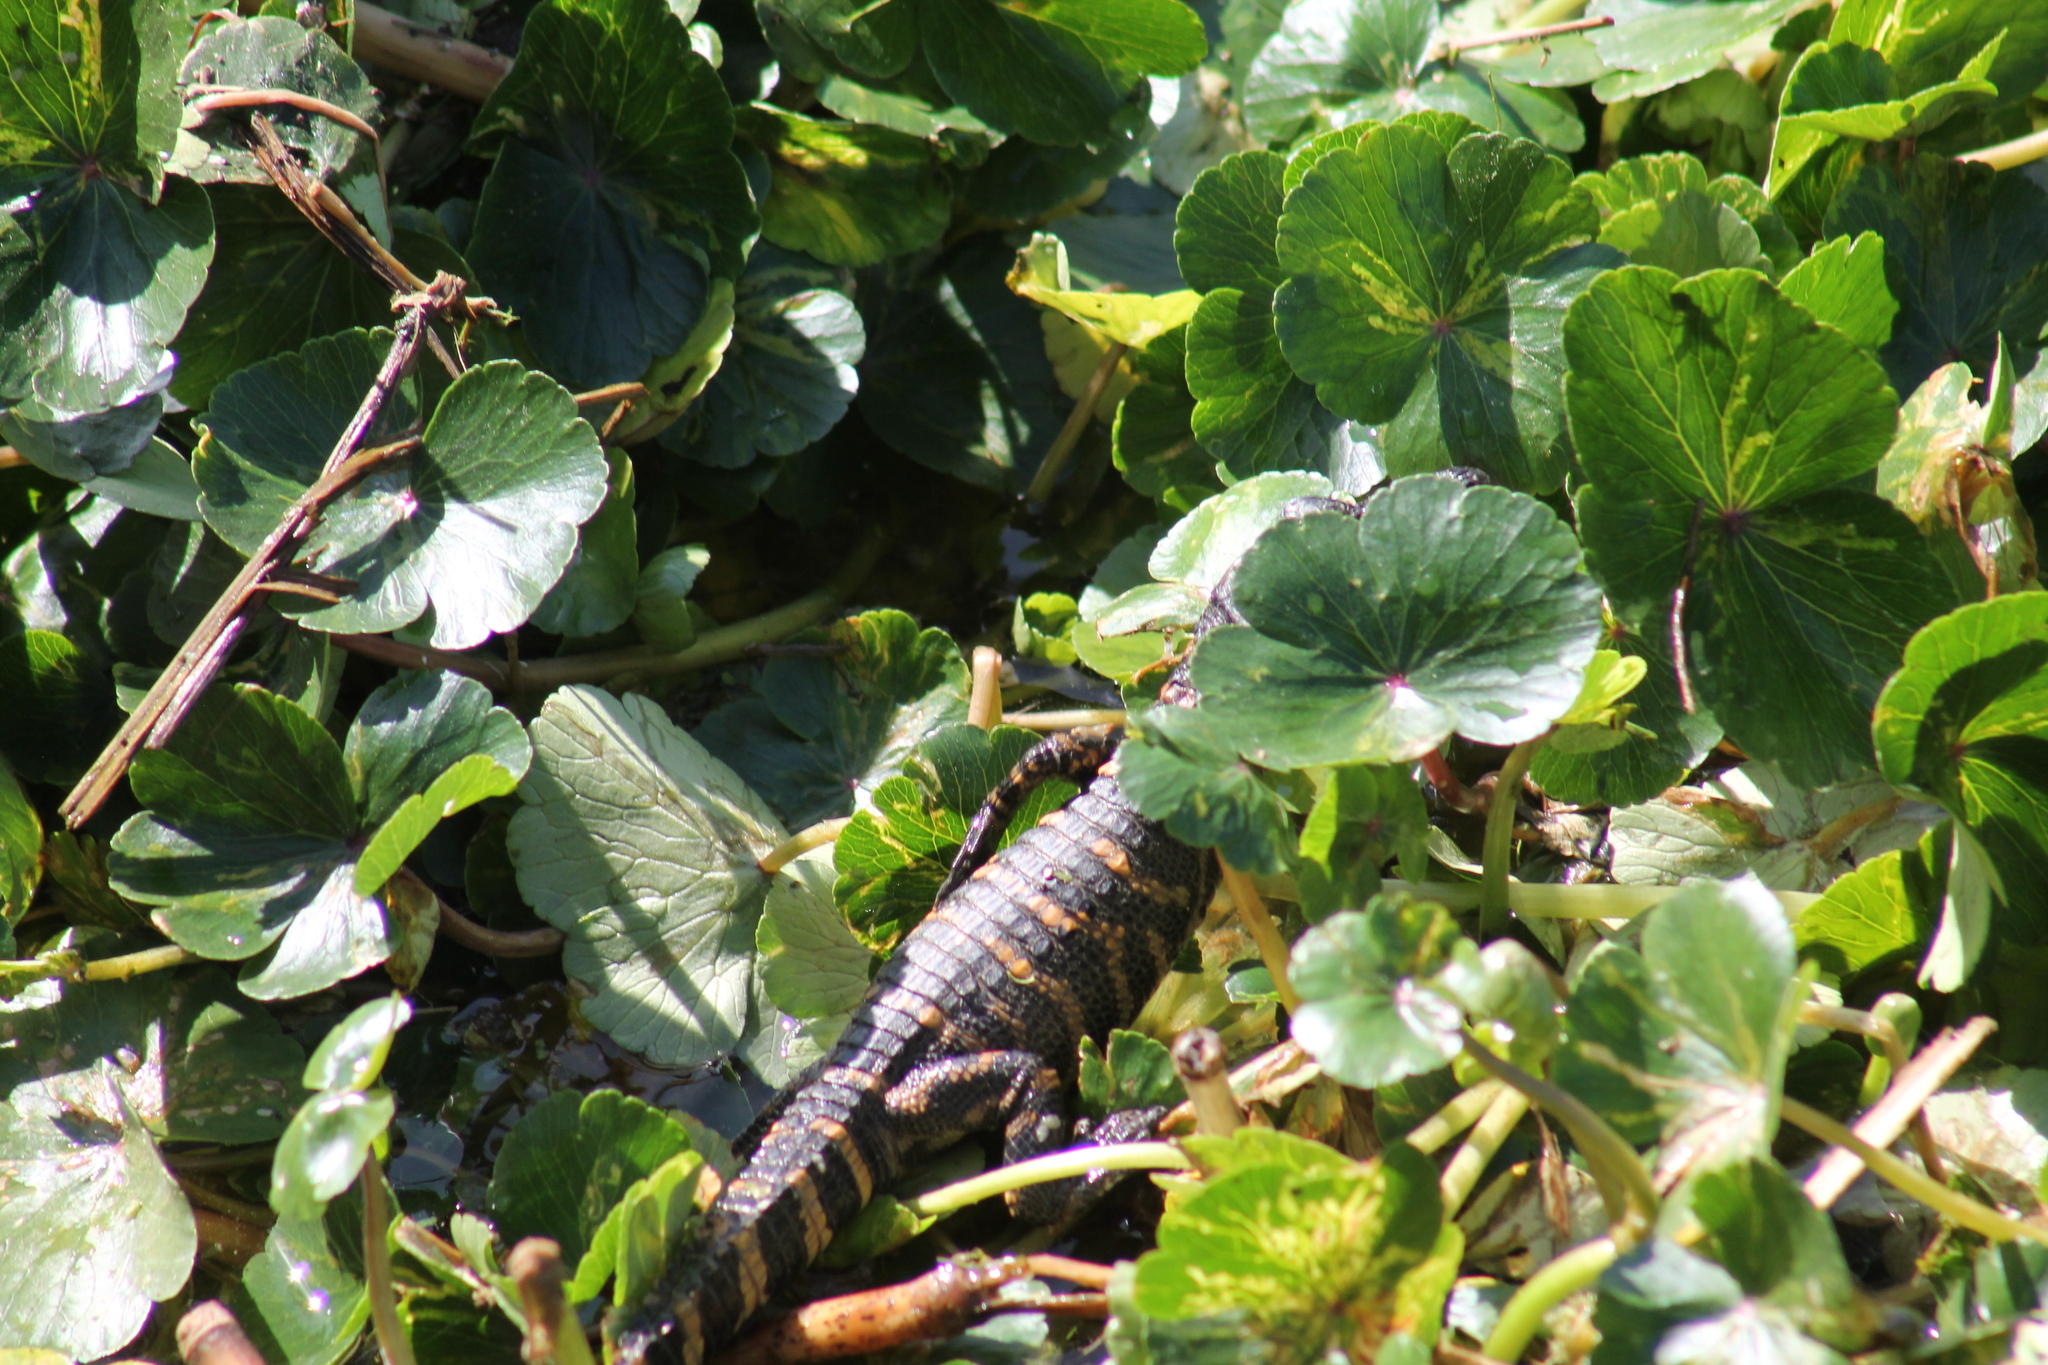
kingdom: Animalia
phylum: Chordata
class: Crocodylia
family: Alligatoridae
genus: Alligator
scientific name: Alligator mississippiensis
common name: American alligator
